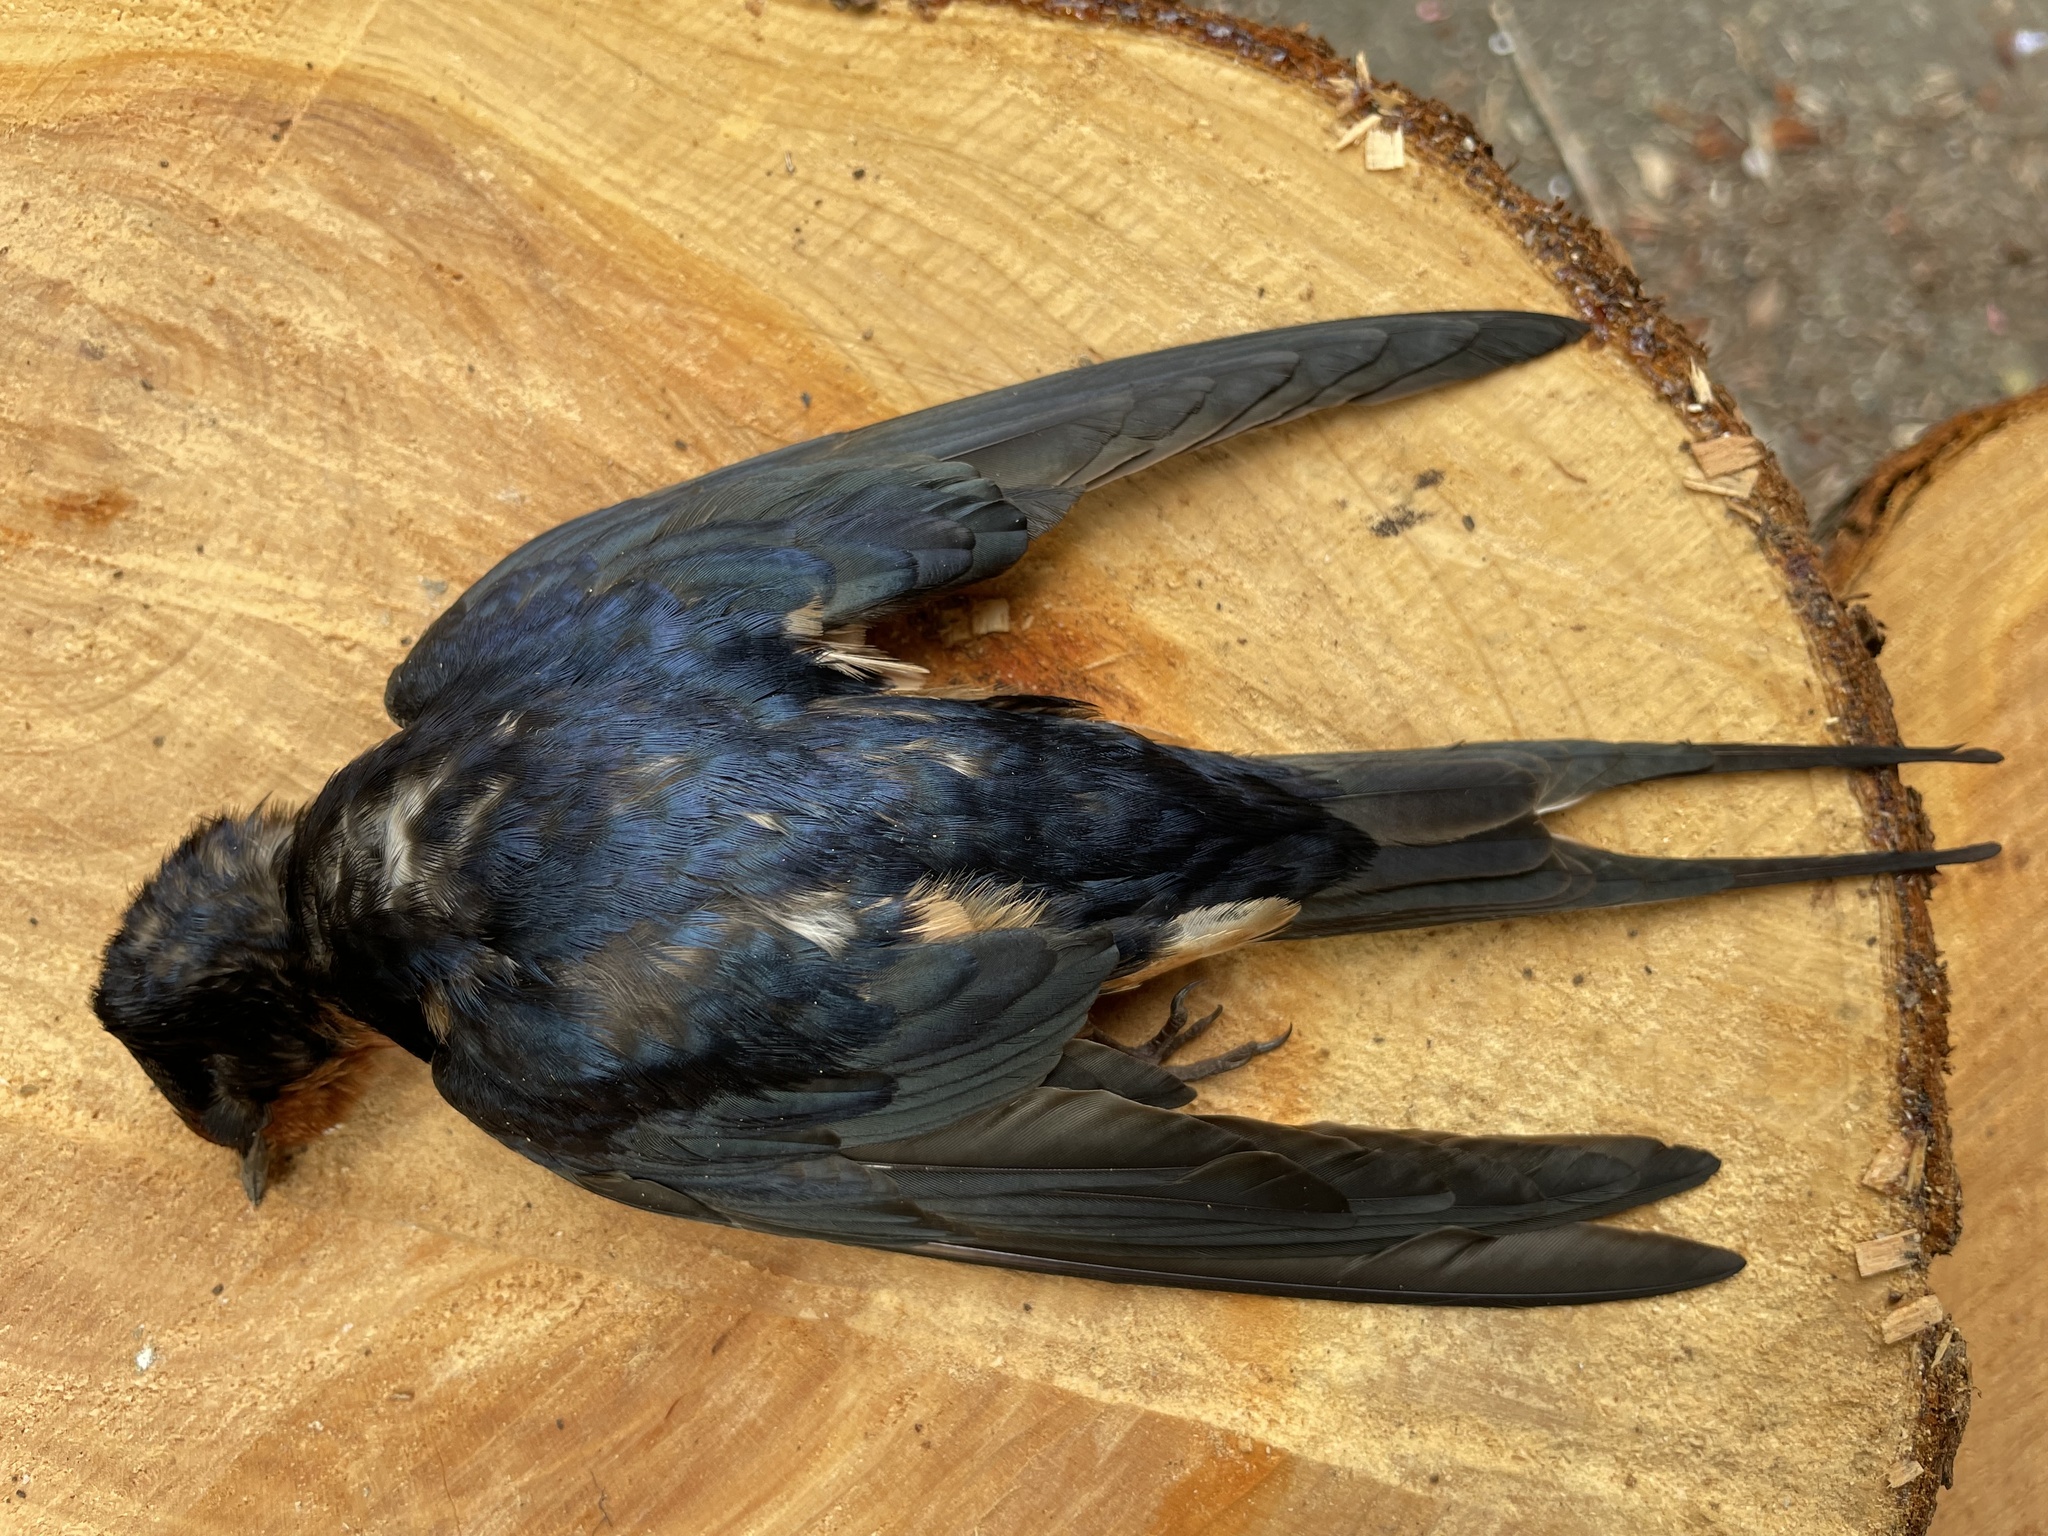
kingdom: Animalia
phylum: Chordata
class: Aves
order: Passeriformes
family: Hirundinidae
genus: Hirundo
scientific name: Hirundo rustica
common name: Barn swallow
